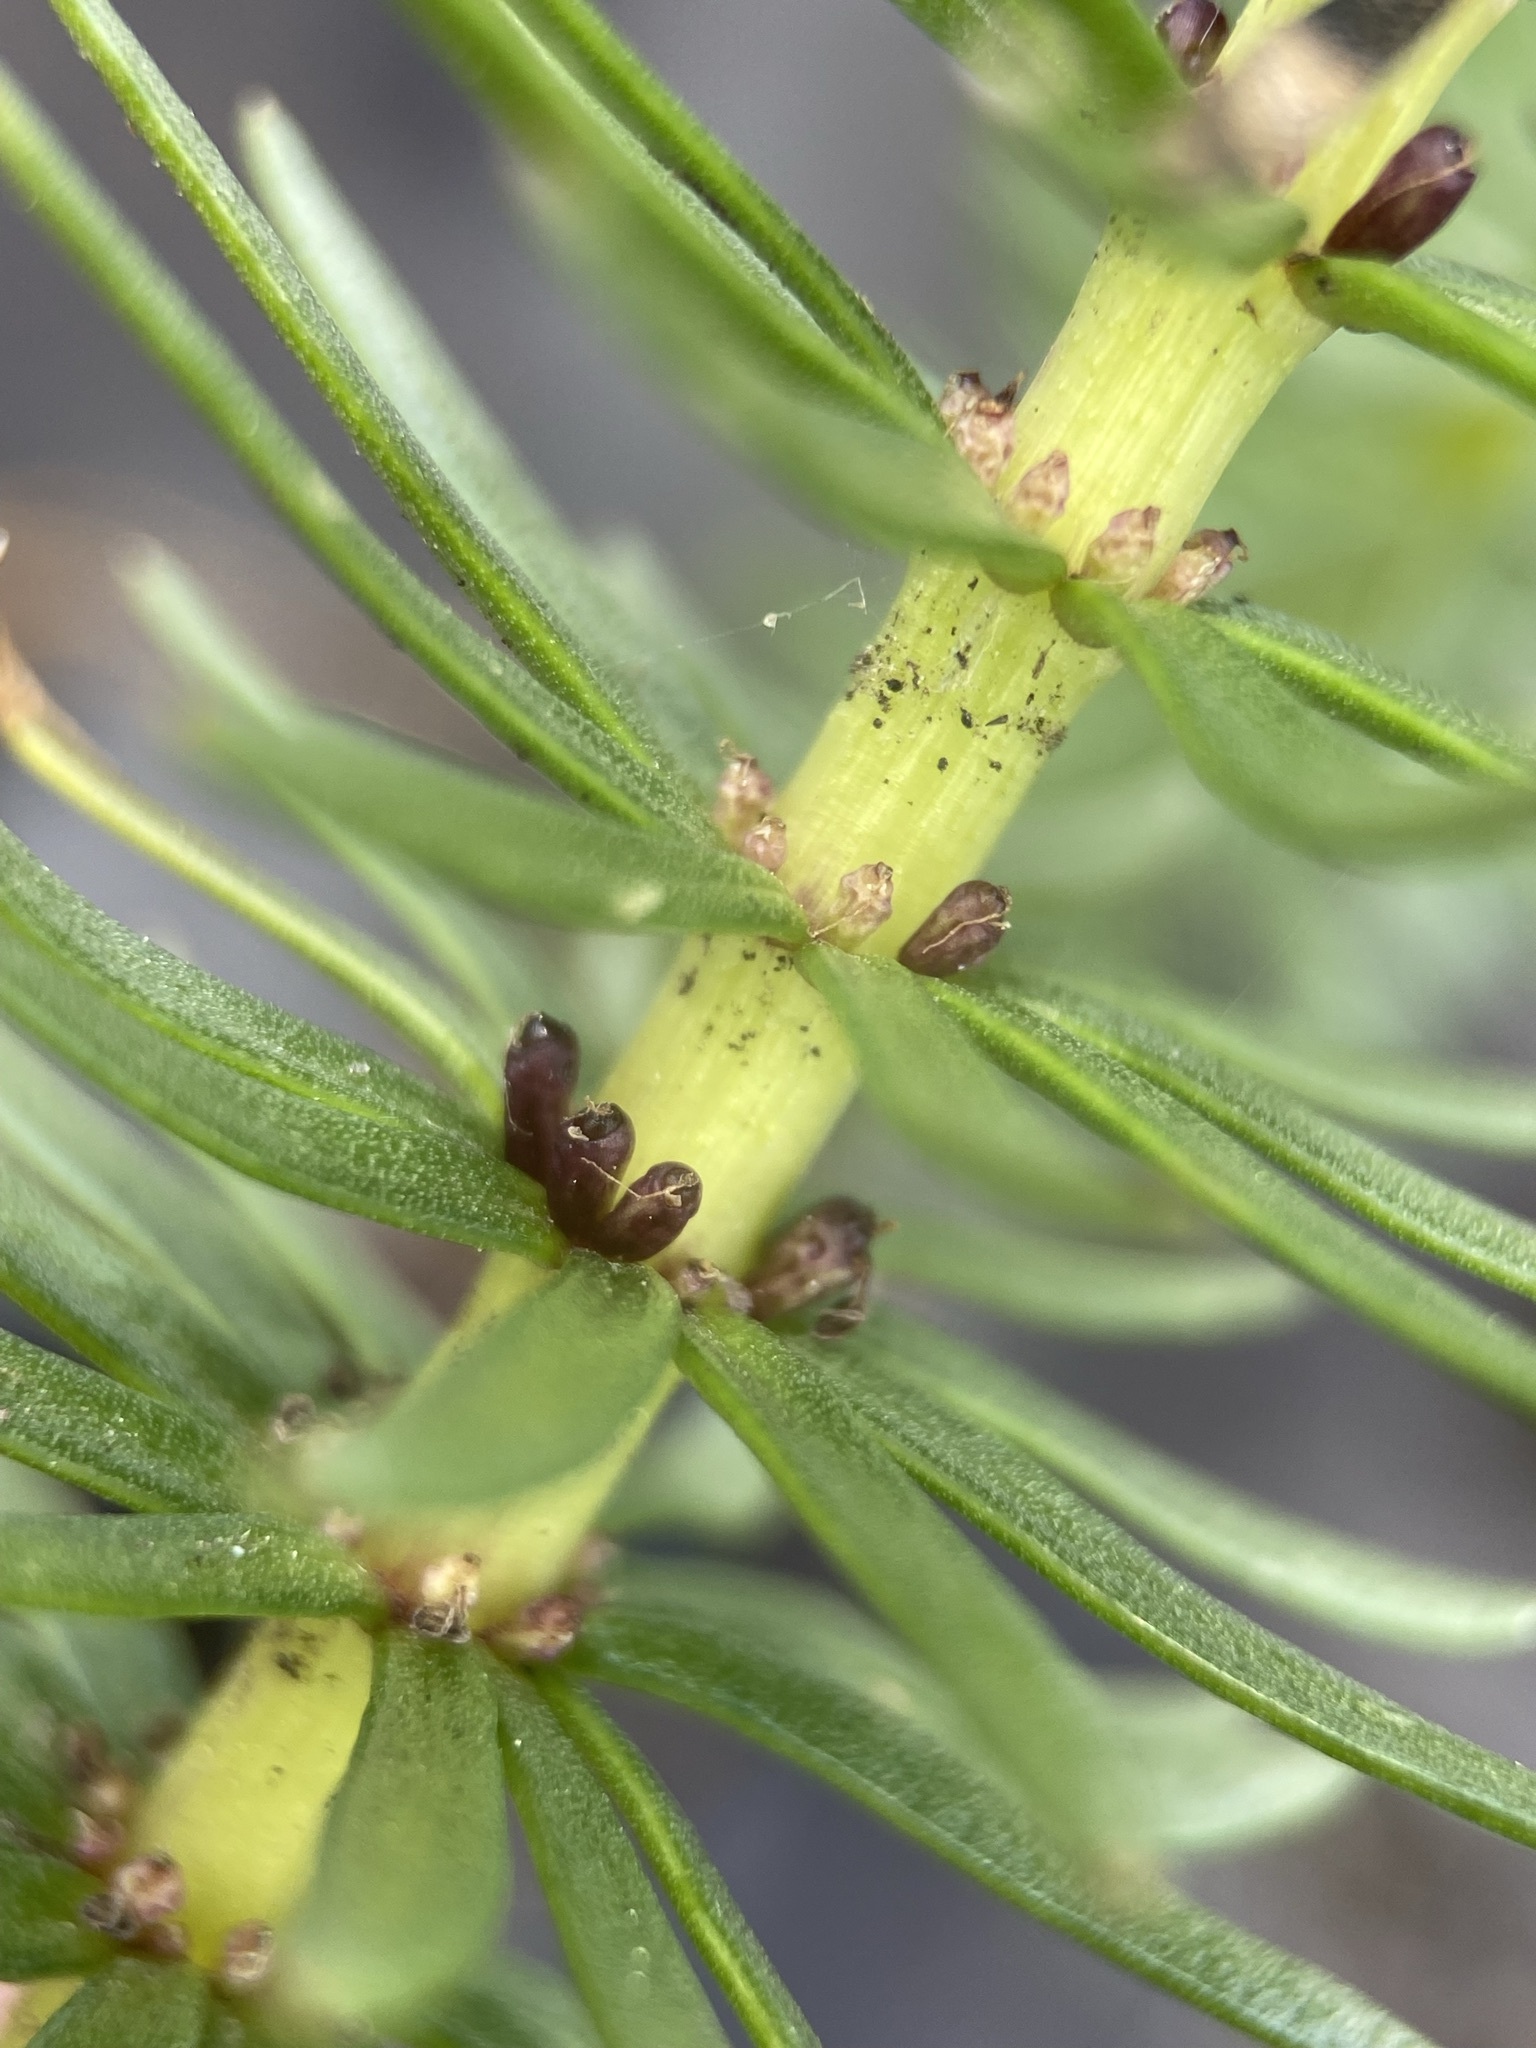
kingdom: Plantae
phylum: Tracheophyta
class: Magnoliopsida
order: Lamiales
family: Plantaginaceae
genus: Hippuris
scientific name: Hippuris vulgaris
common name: Mare's-tail
